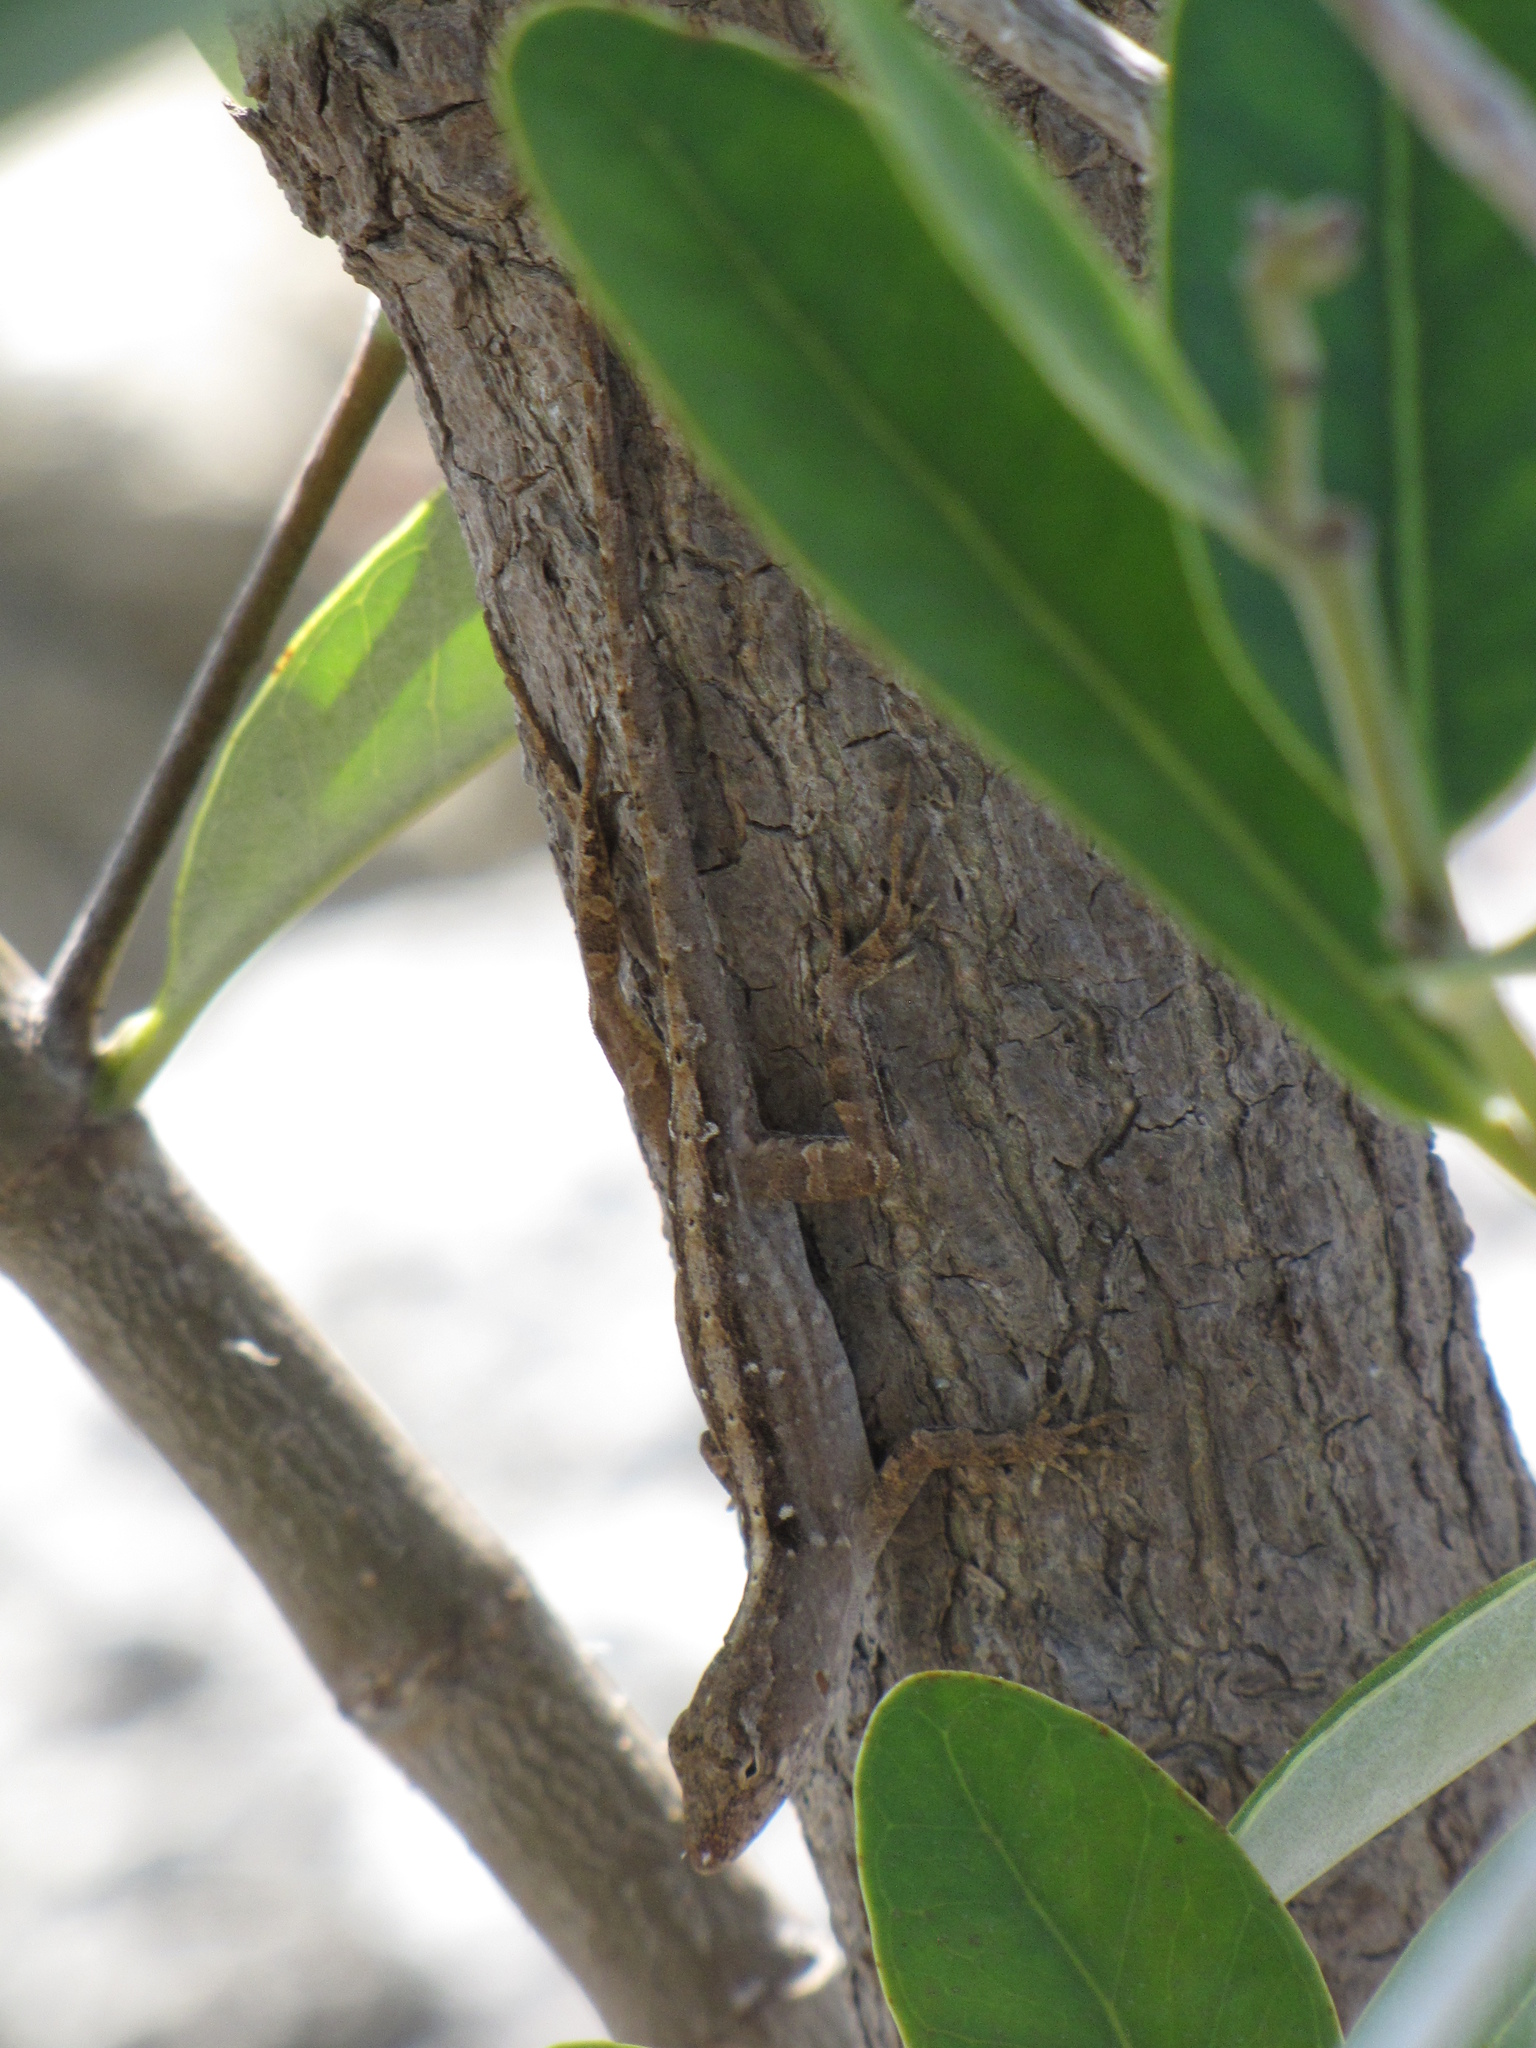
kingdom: Animalia
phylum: Chordata
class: Squamata
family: Dactyloidae
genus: Anolis
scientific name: Anolis sagrei
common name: Brown anole
